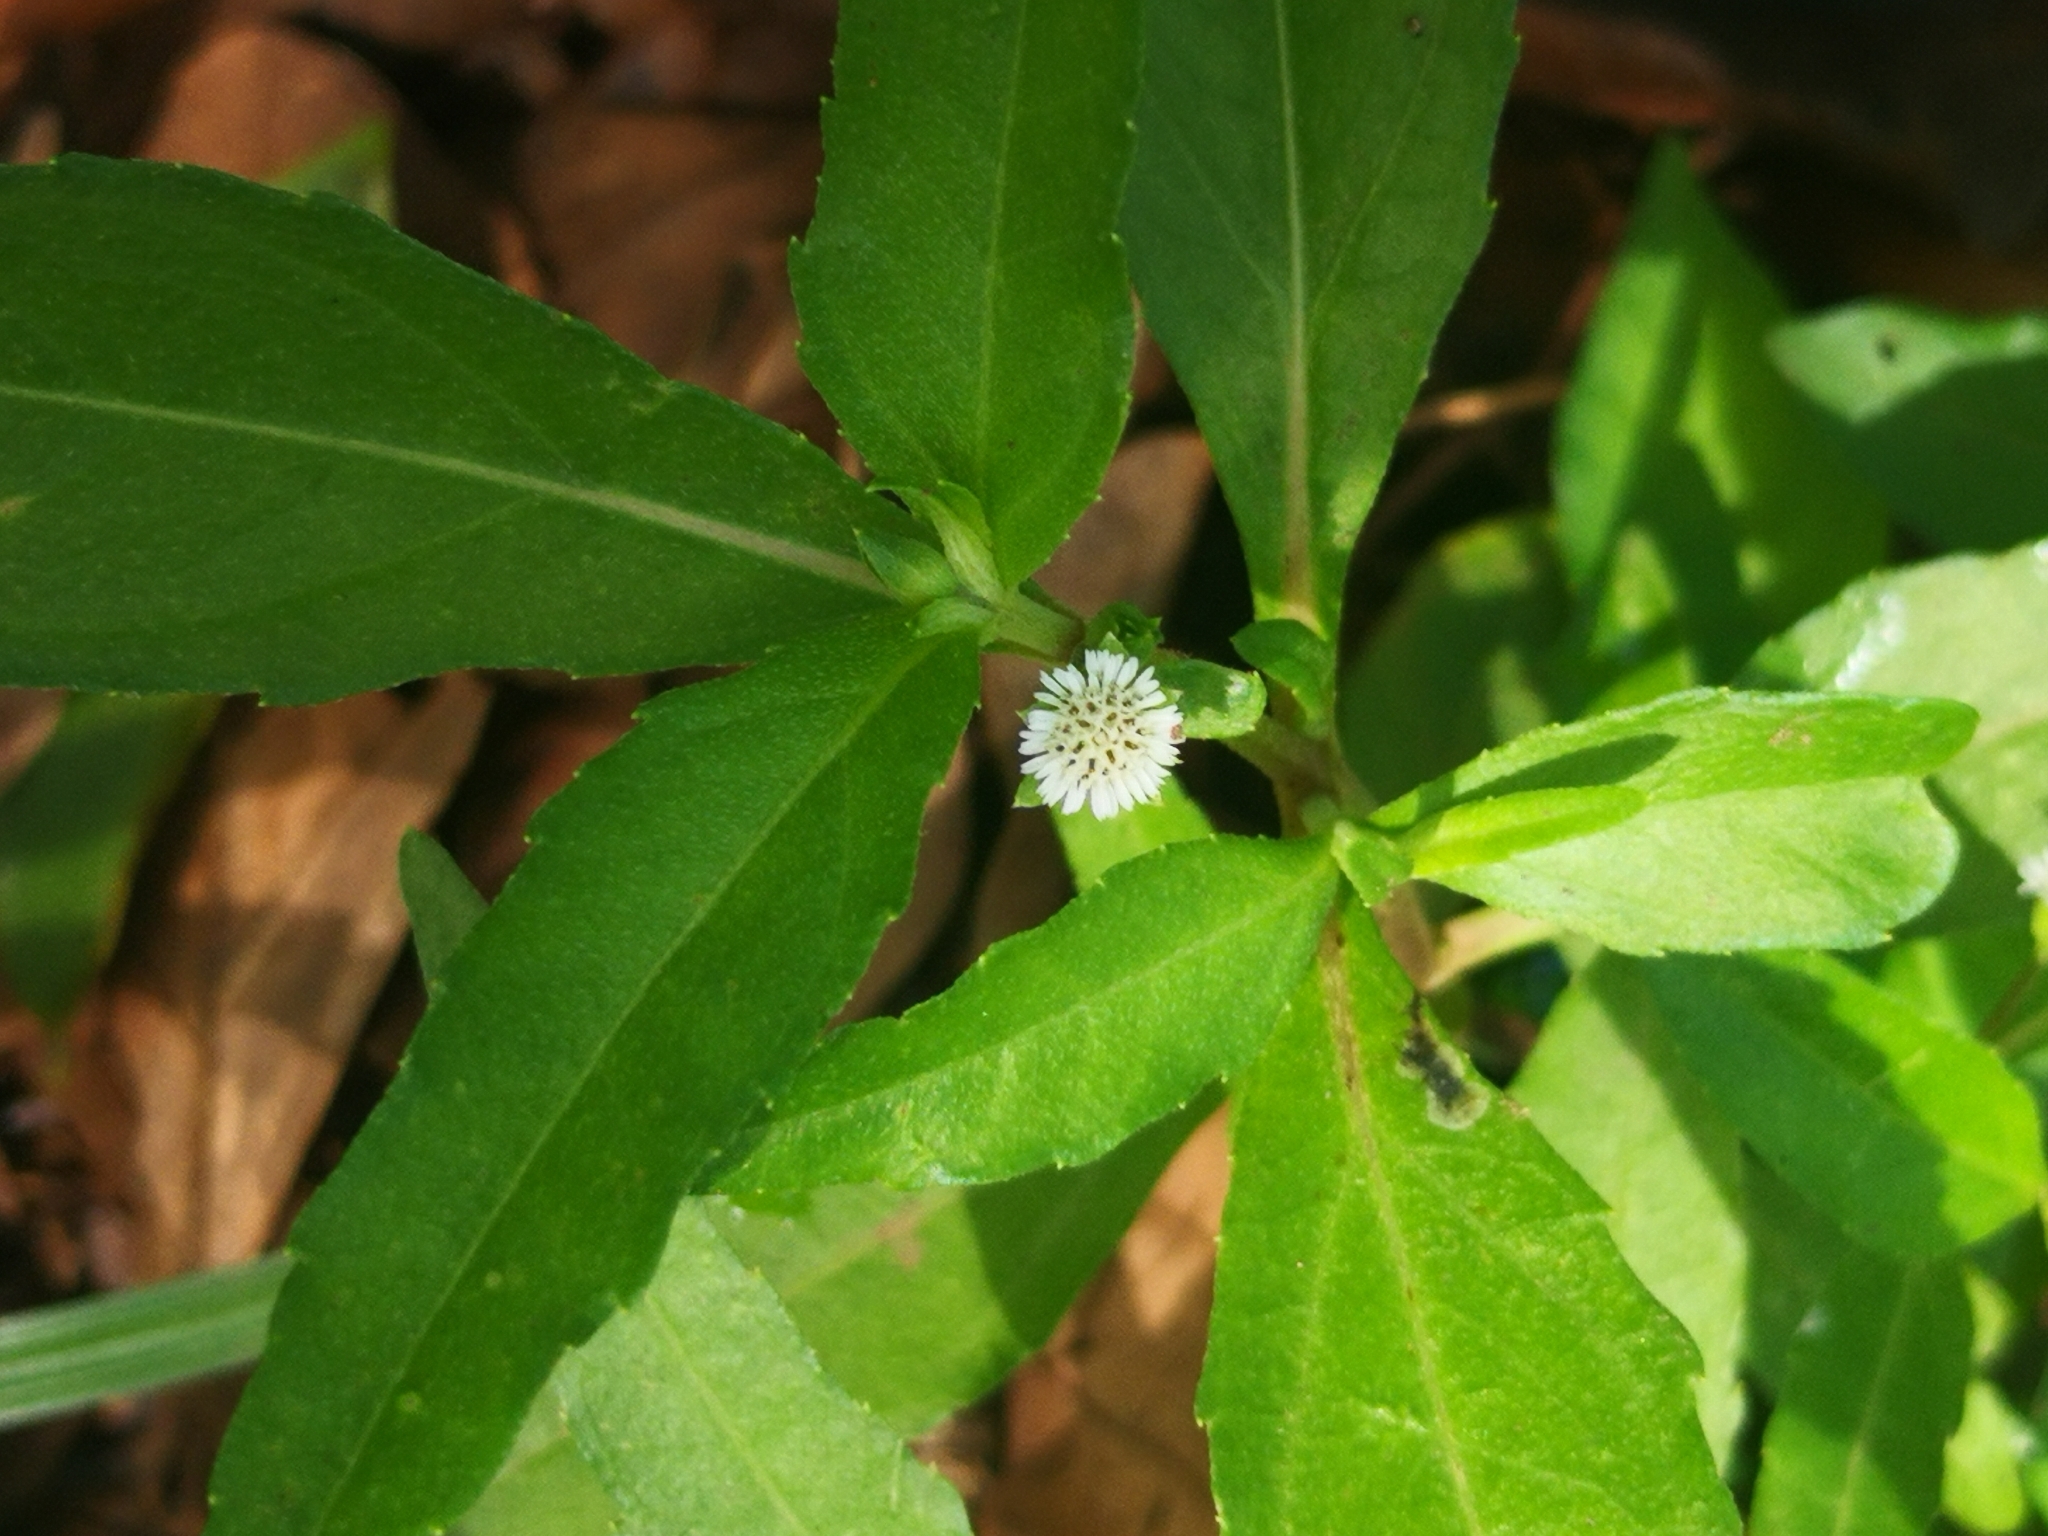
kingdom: Plantae
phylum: Tracheophyta
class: Magnoliopsida
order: Asterales
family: Asteraceae
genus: Eclipta
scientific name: Eclipta prostrata
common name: False daisy
